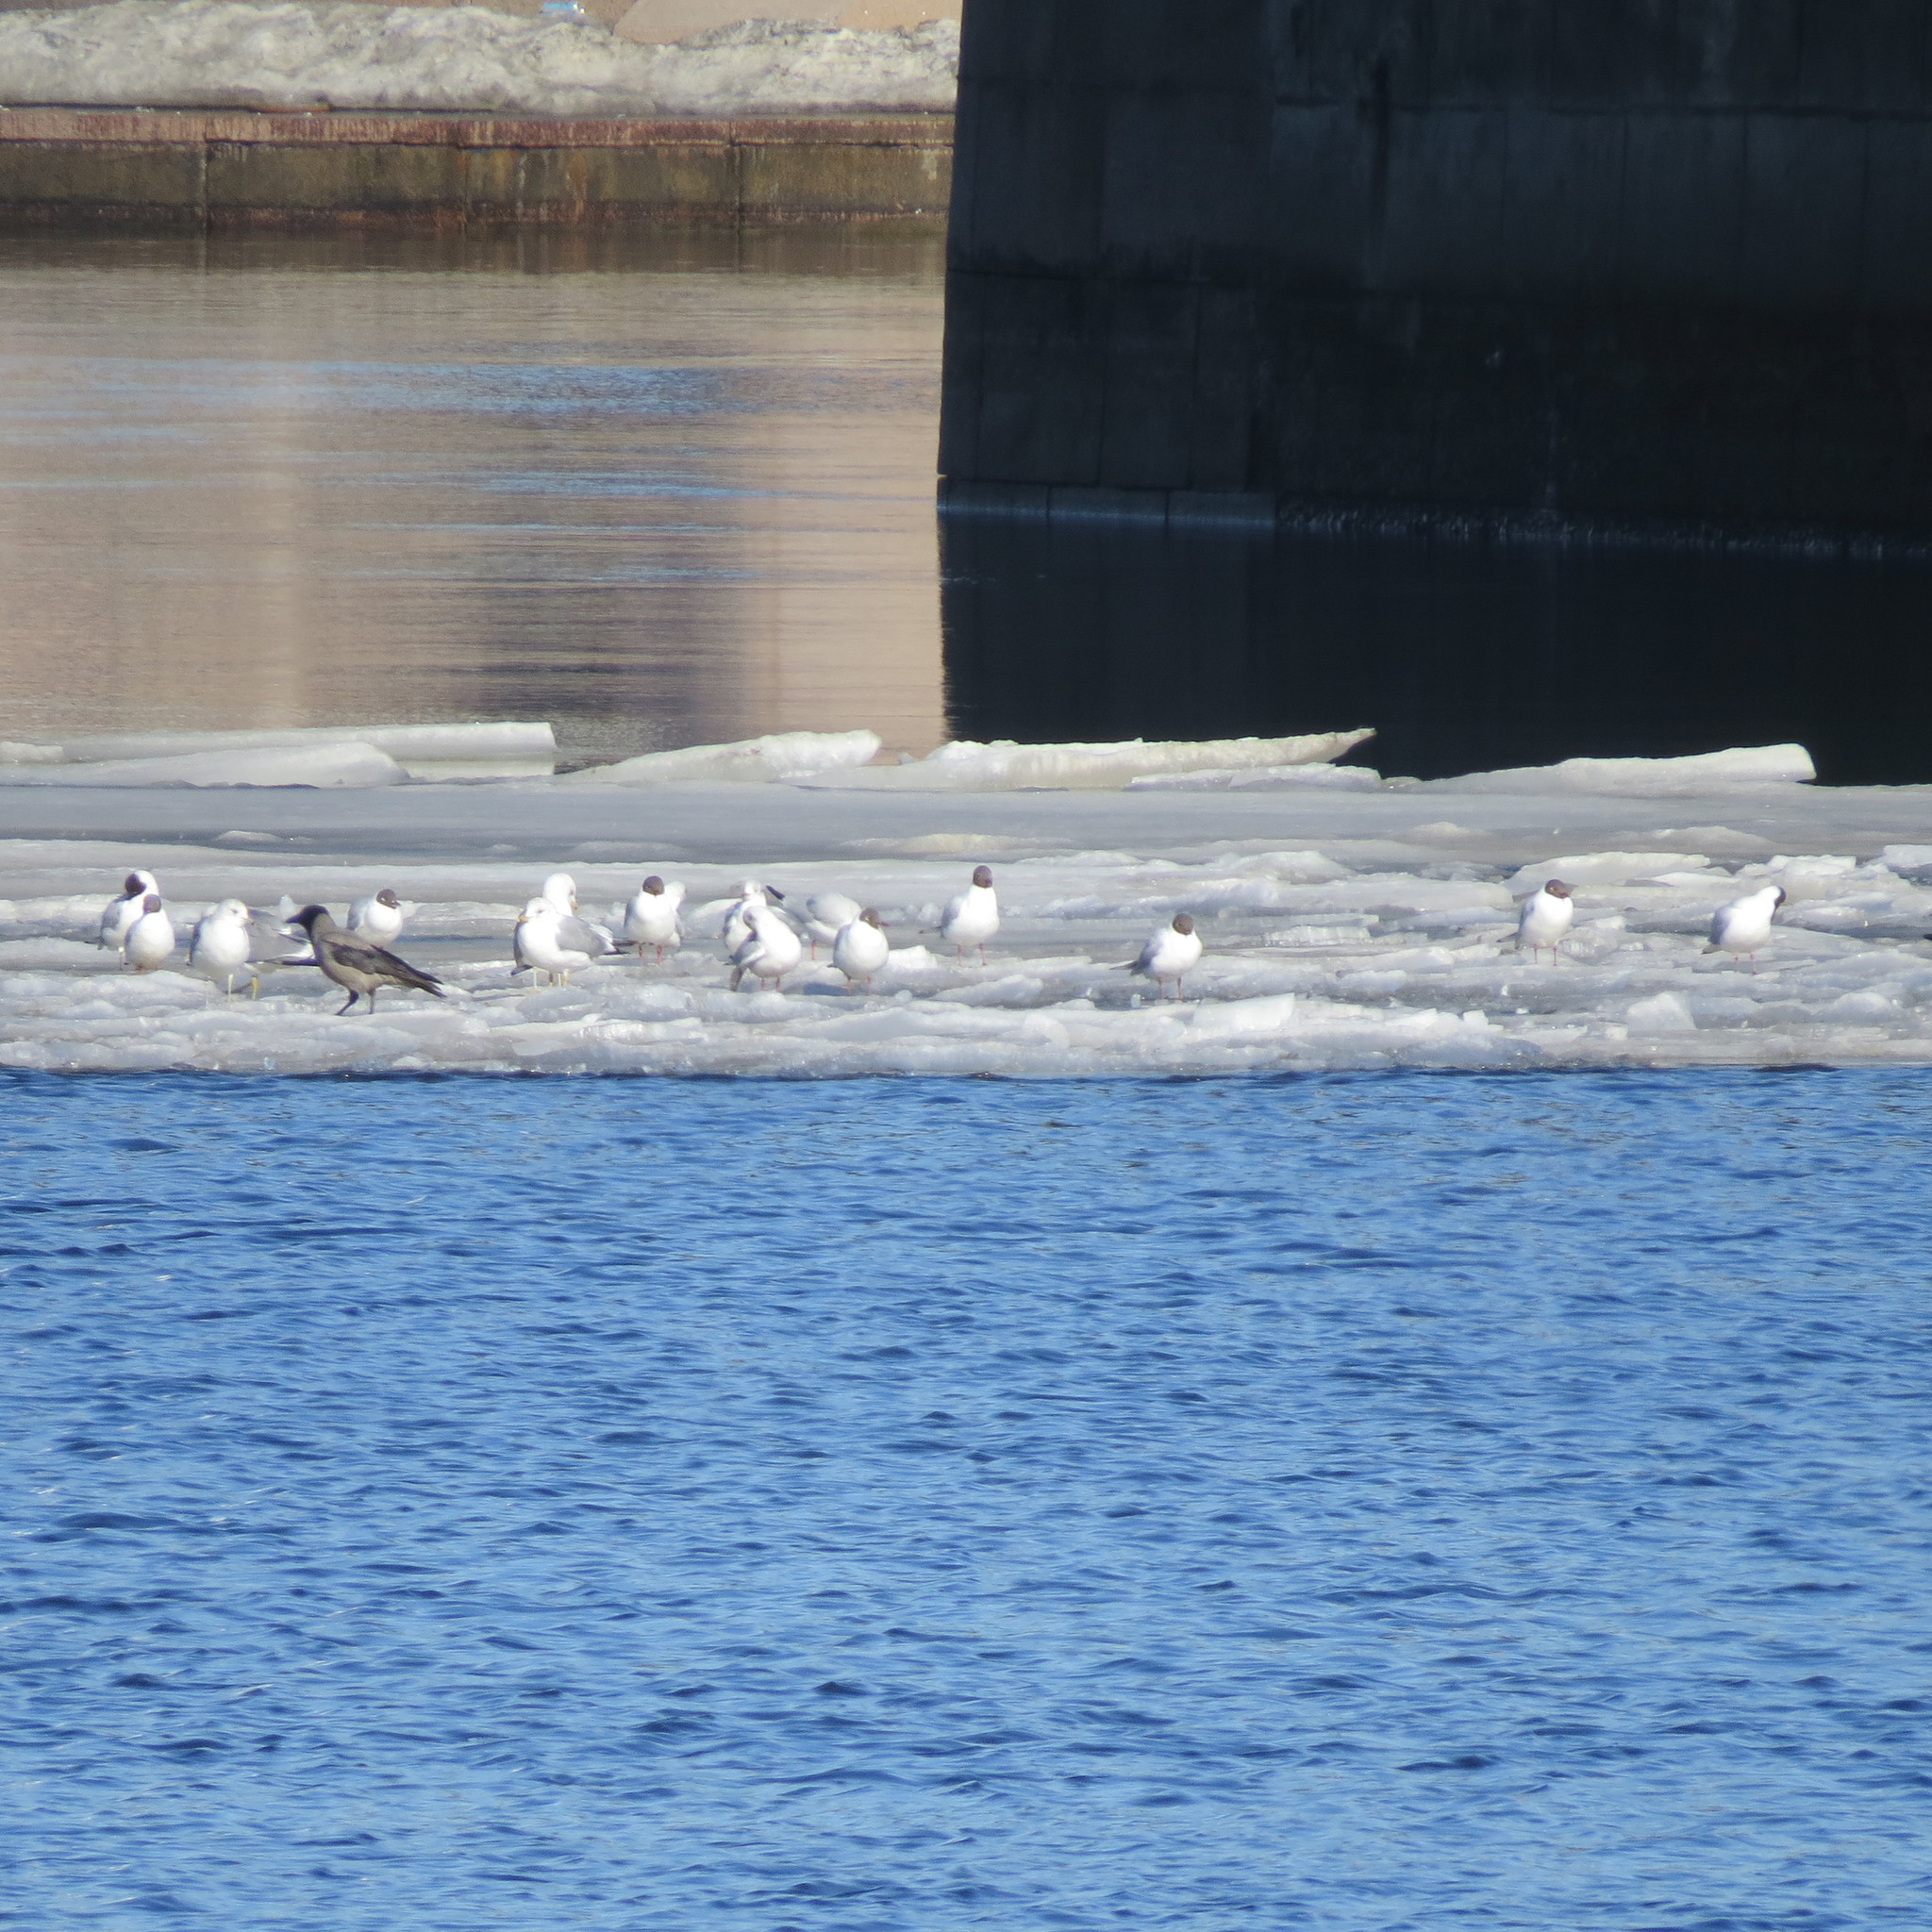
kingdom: Animalia
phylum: Chordata
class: Aves
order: Charadriiformes
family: Laridae
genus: Chroicocephalus
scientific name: Chroicocephalus ridibundus
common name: Black-headed gull
